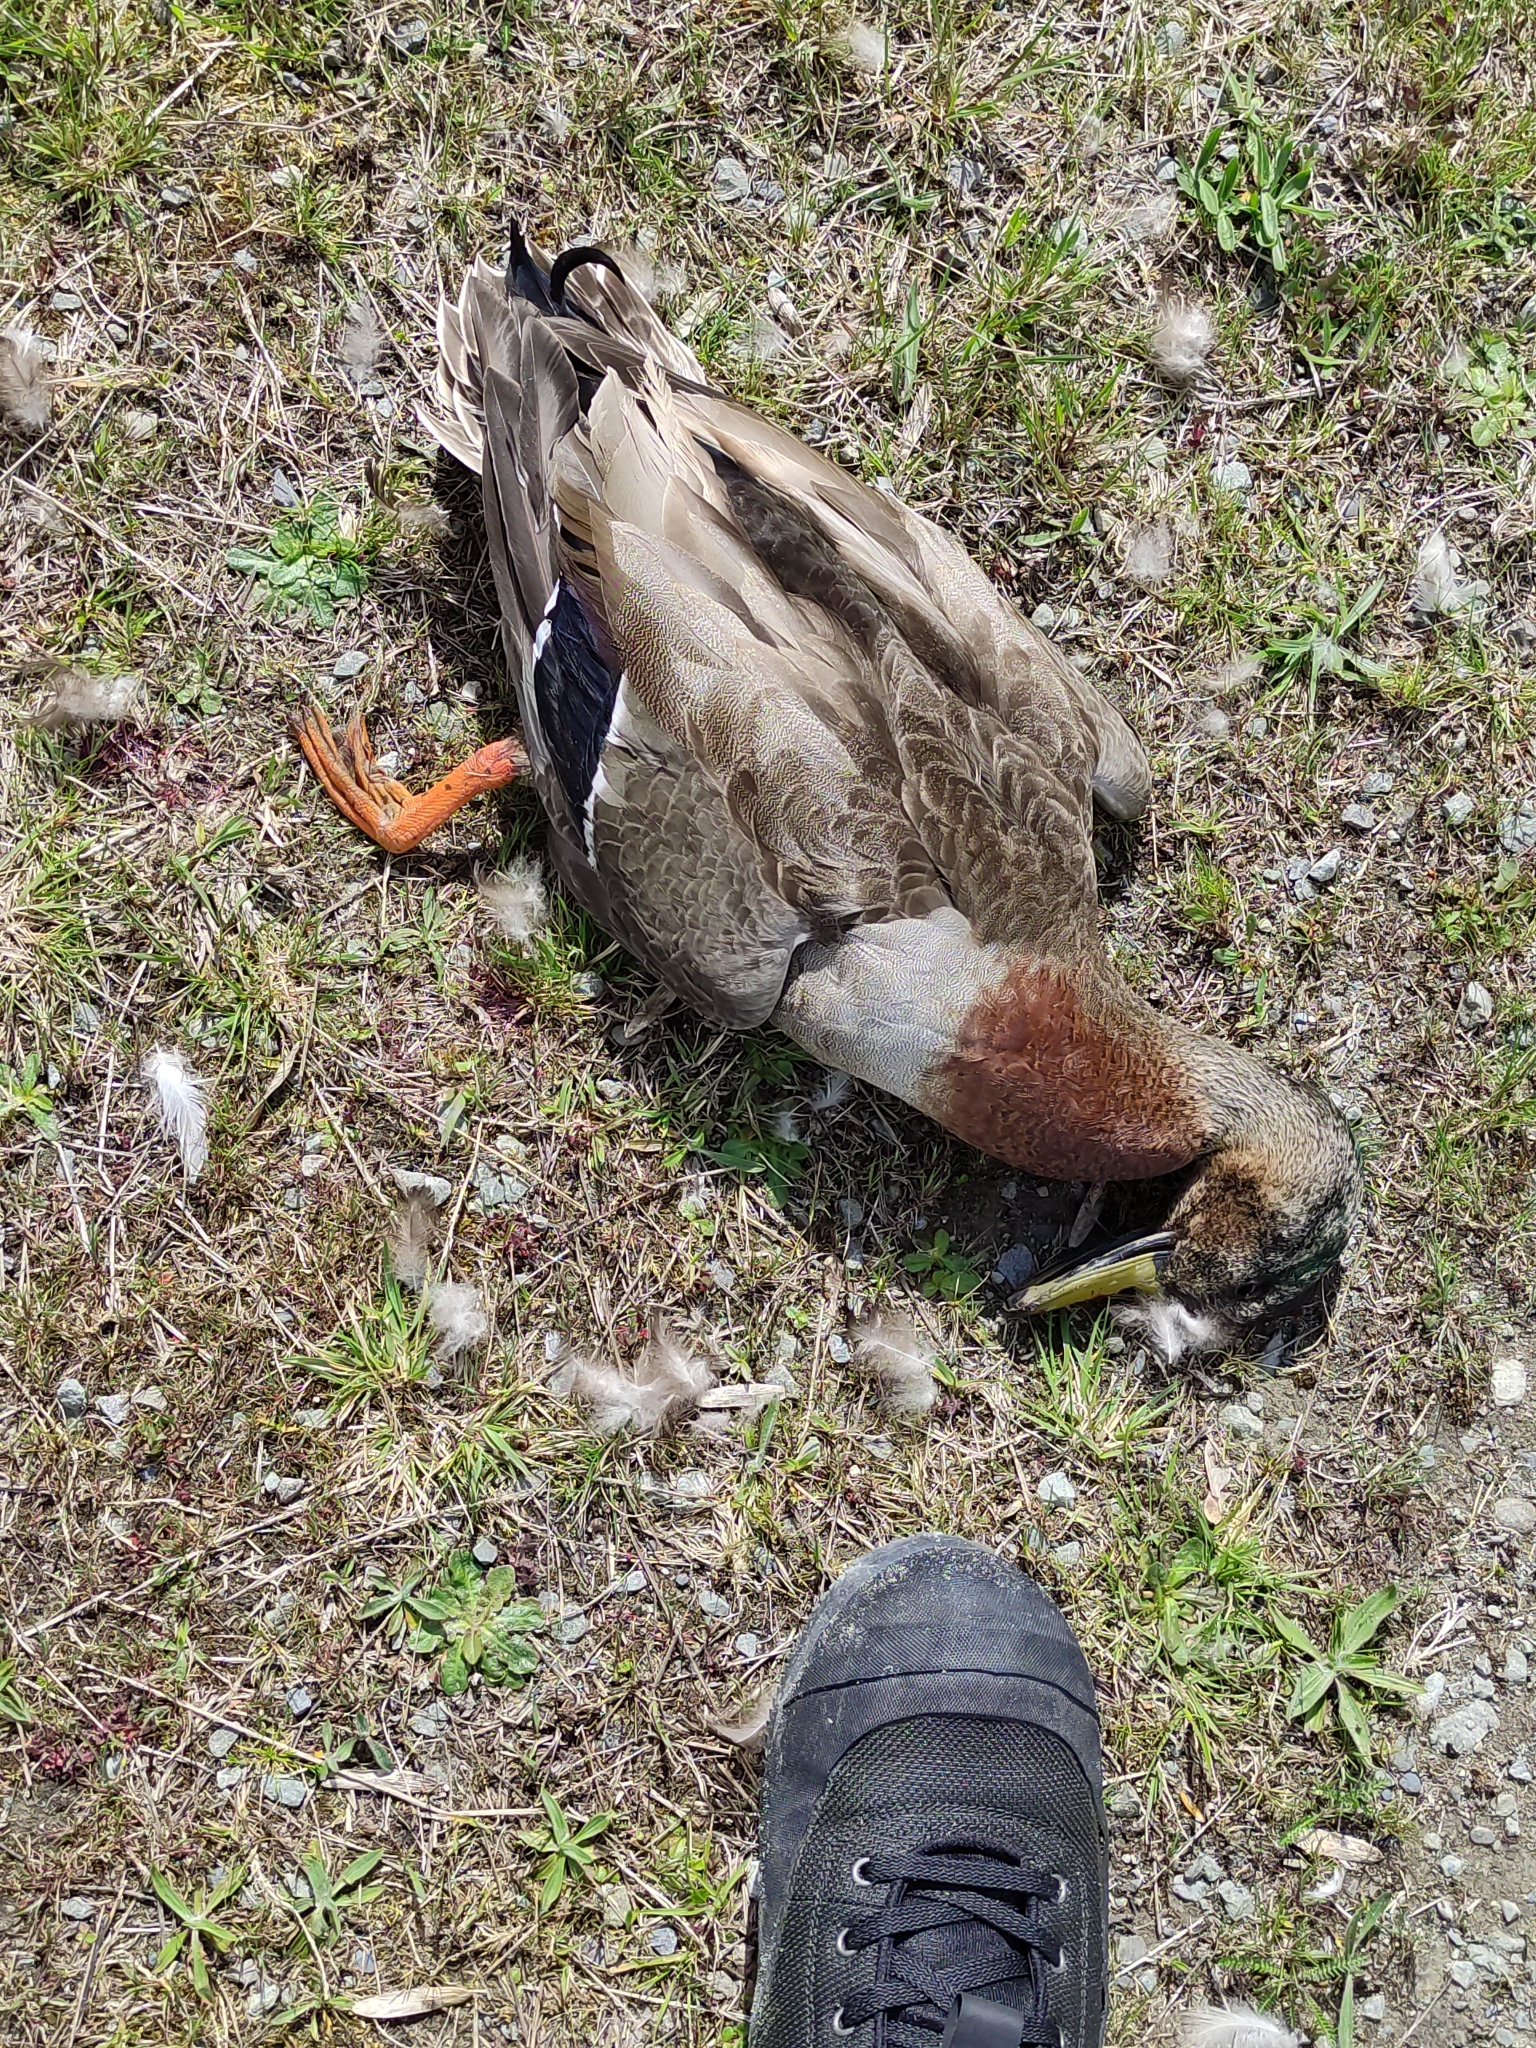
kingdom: Animalia
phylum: Chordata
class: Aves
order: Anseriformes
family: Anatidae
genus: Anas
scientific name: Anas platyrhynchos
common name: Mallard
